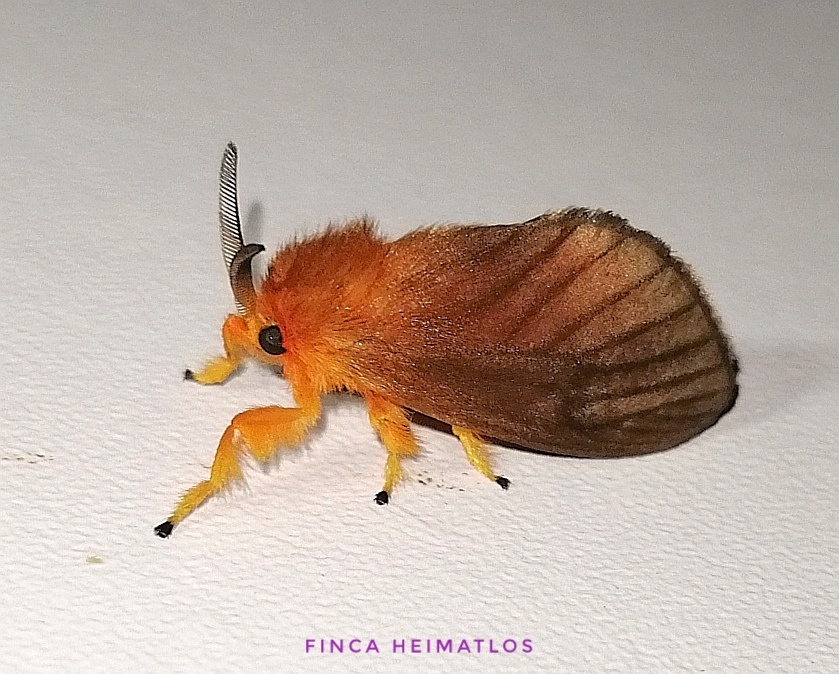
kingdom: Animalia
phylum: Arthropoda
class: Insecta
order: Lepidoptera
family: Megalopygidae
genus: Thoscora
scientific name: Thoscora ribbei
